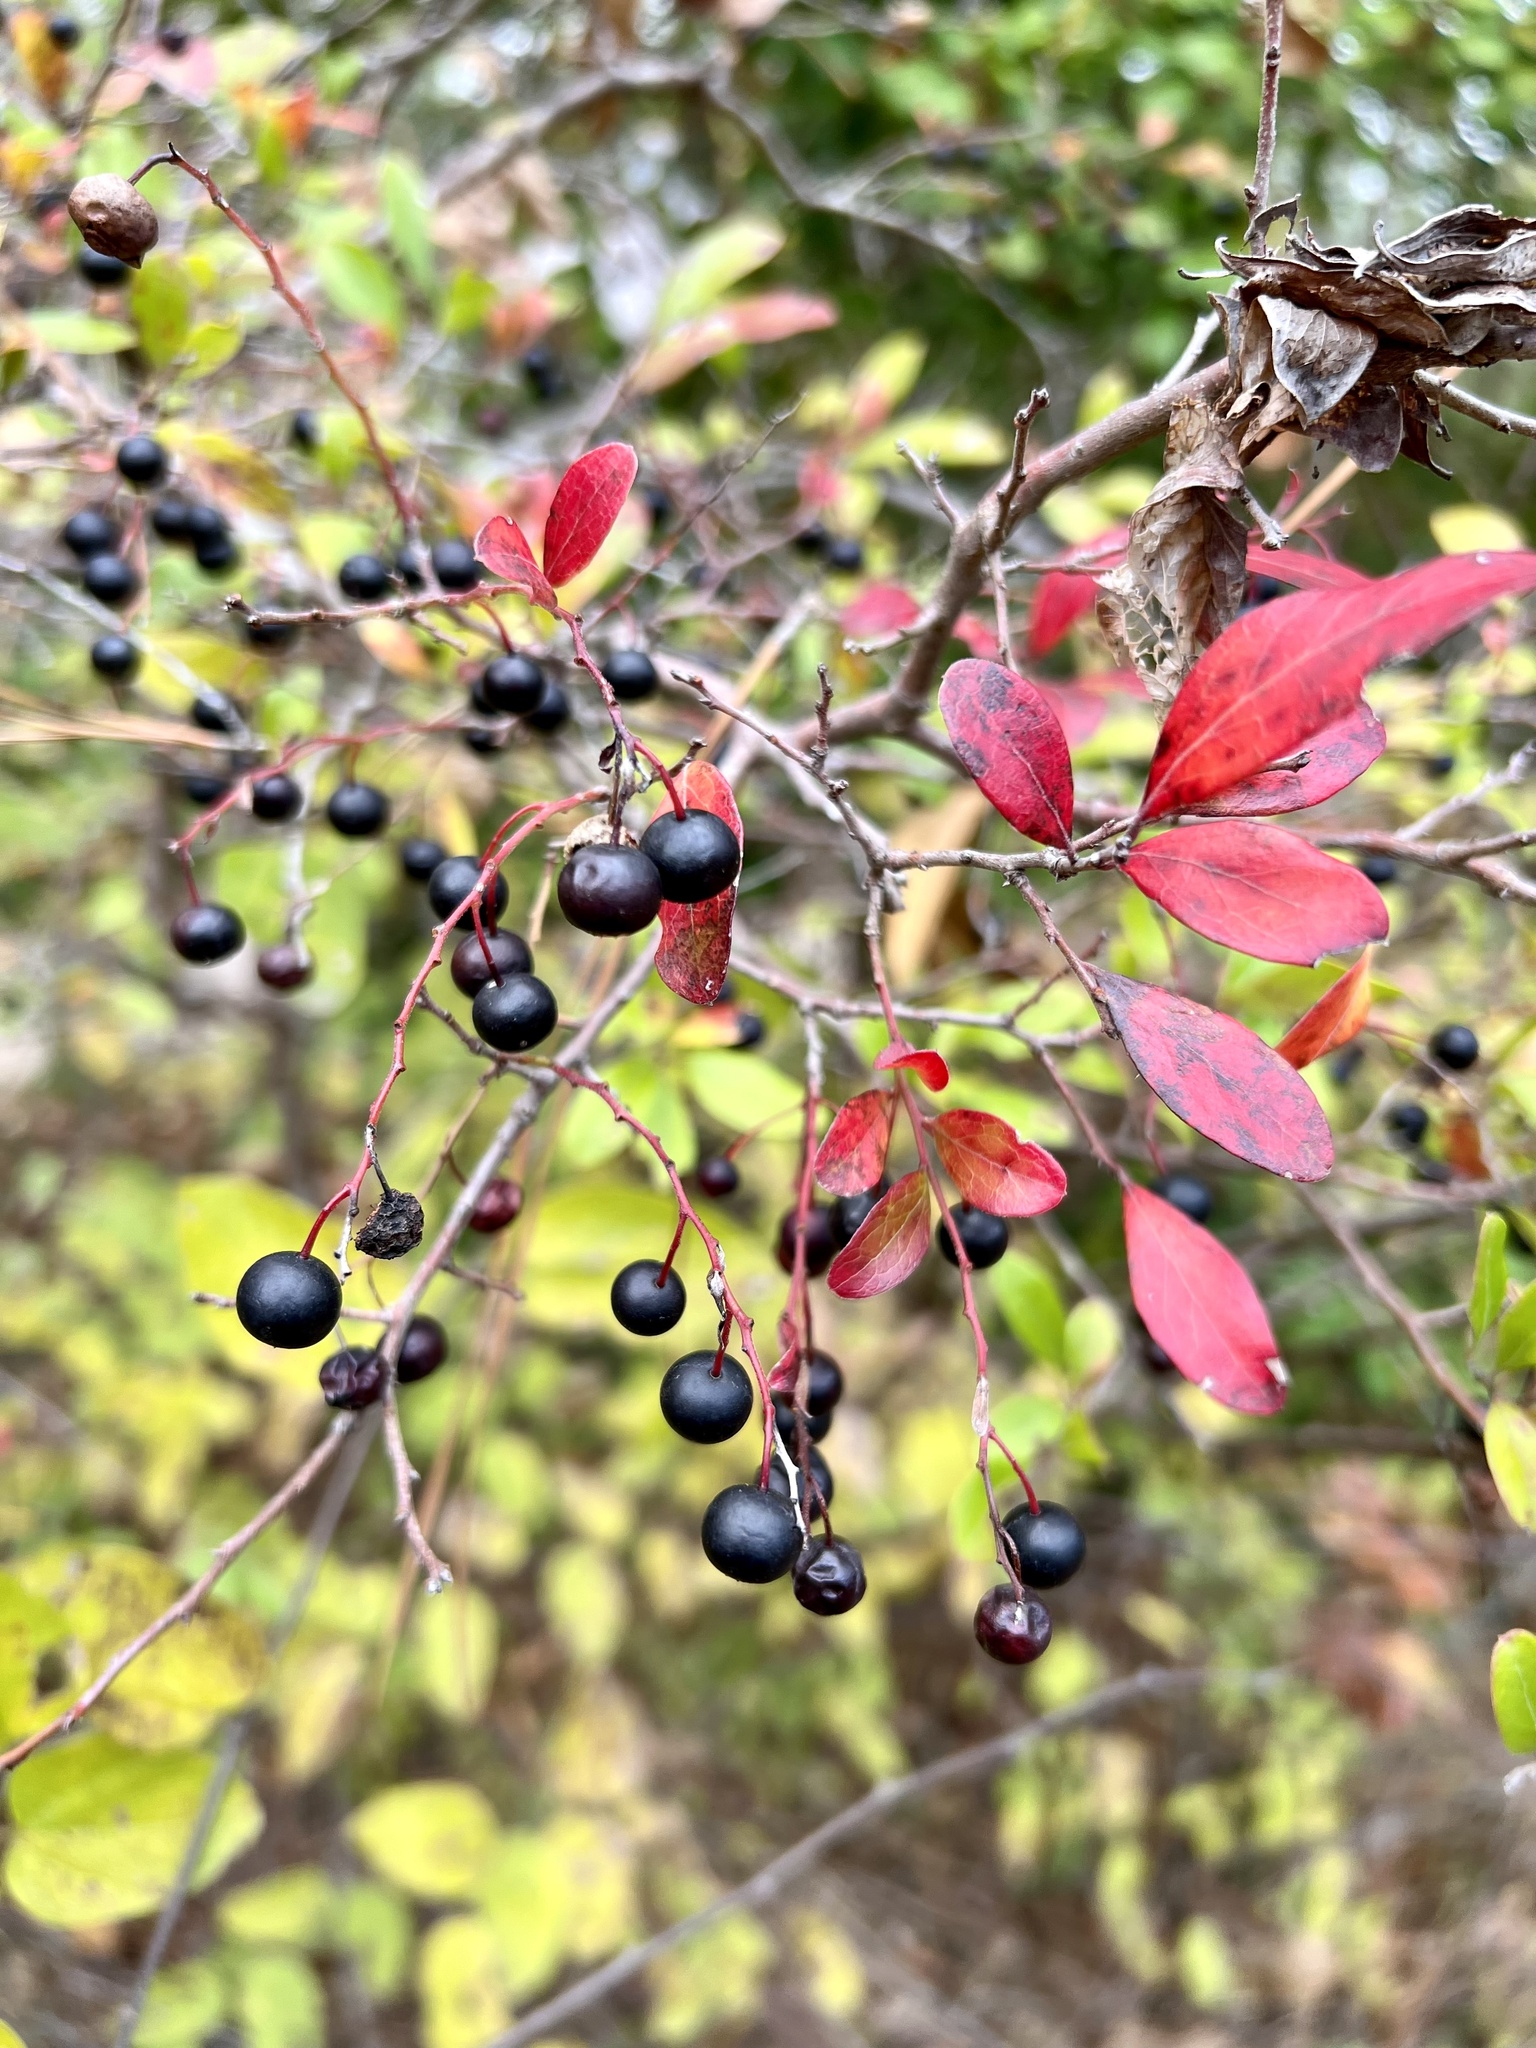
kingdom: Plantae
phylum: Tracheophyta
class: Magnoliopsida
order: Ericales
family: Ericaceae
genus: Vaccinium
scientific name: Vaccinium arboreum
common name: Farkleberry
